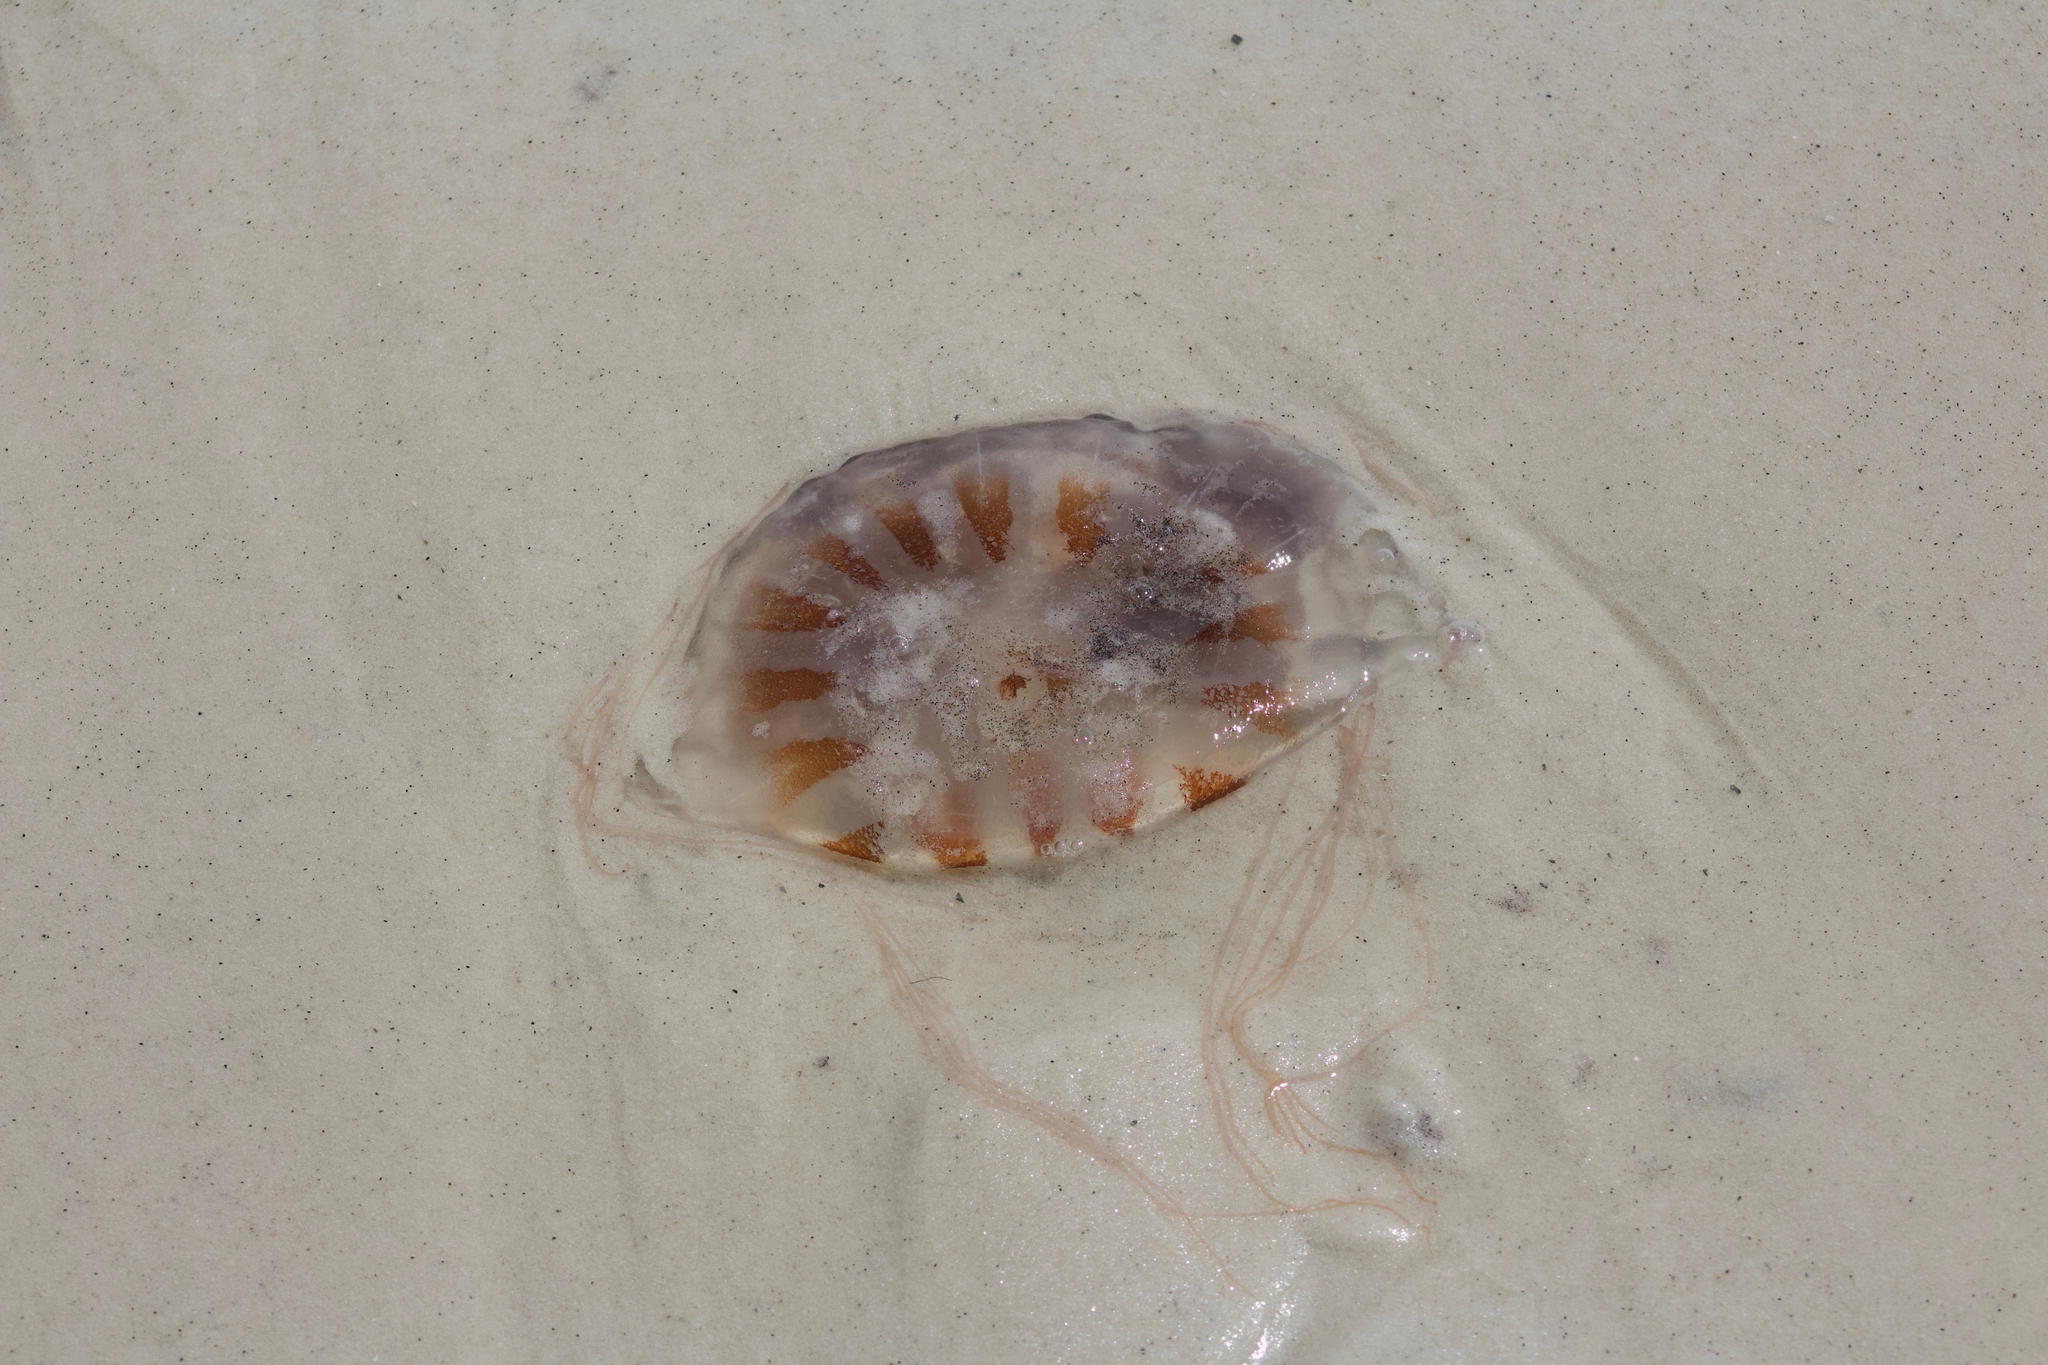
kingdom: Animalia
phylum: Cnidaria
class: Scyphozoa
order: Semaeostomeae
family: Pelagiidae
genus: Chrysaora
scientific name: Chrysaora chesapeakei
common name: Bay nettle
